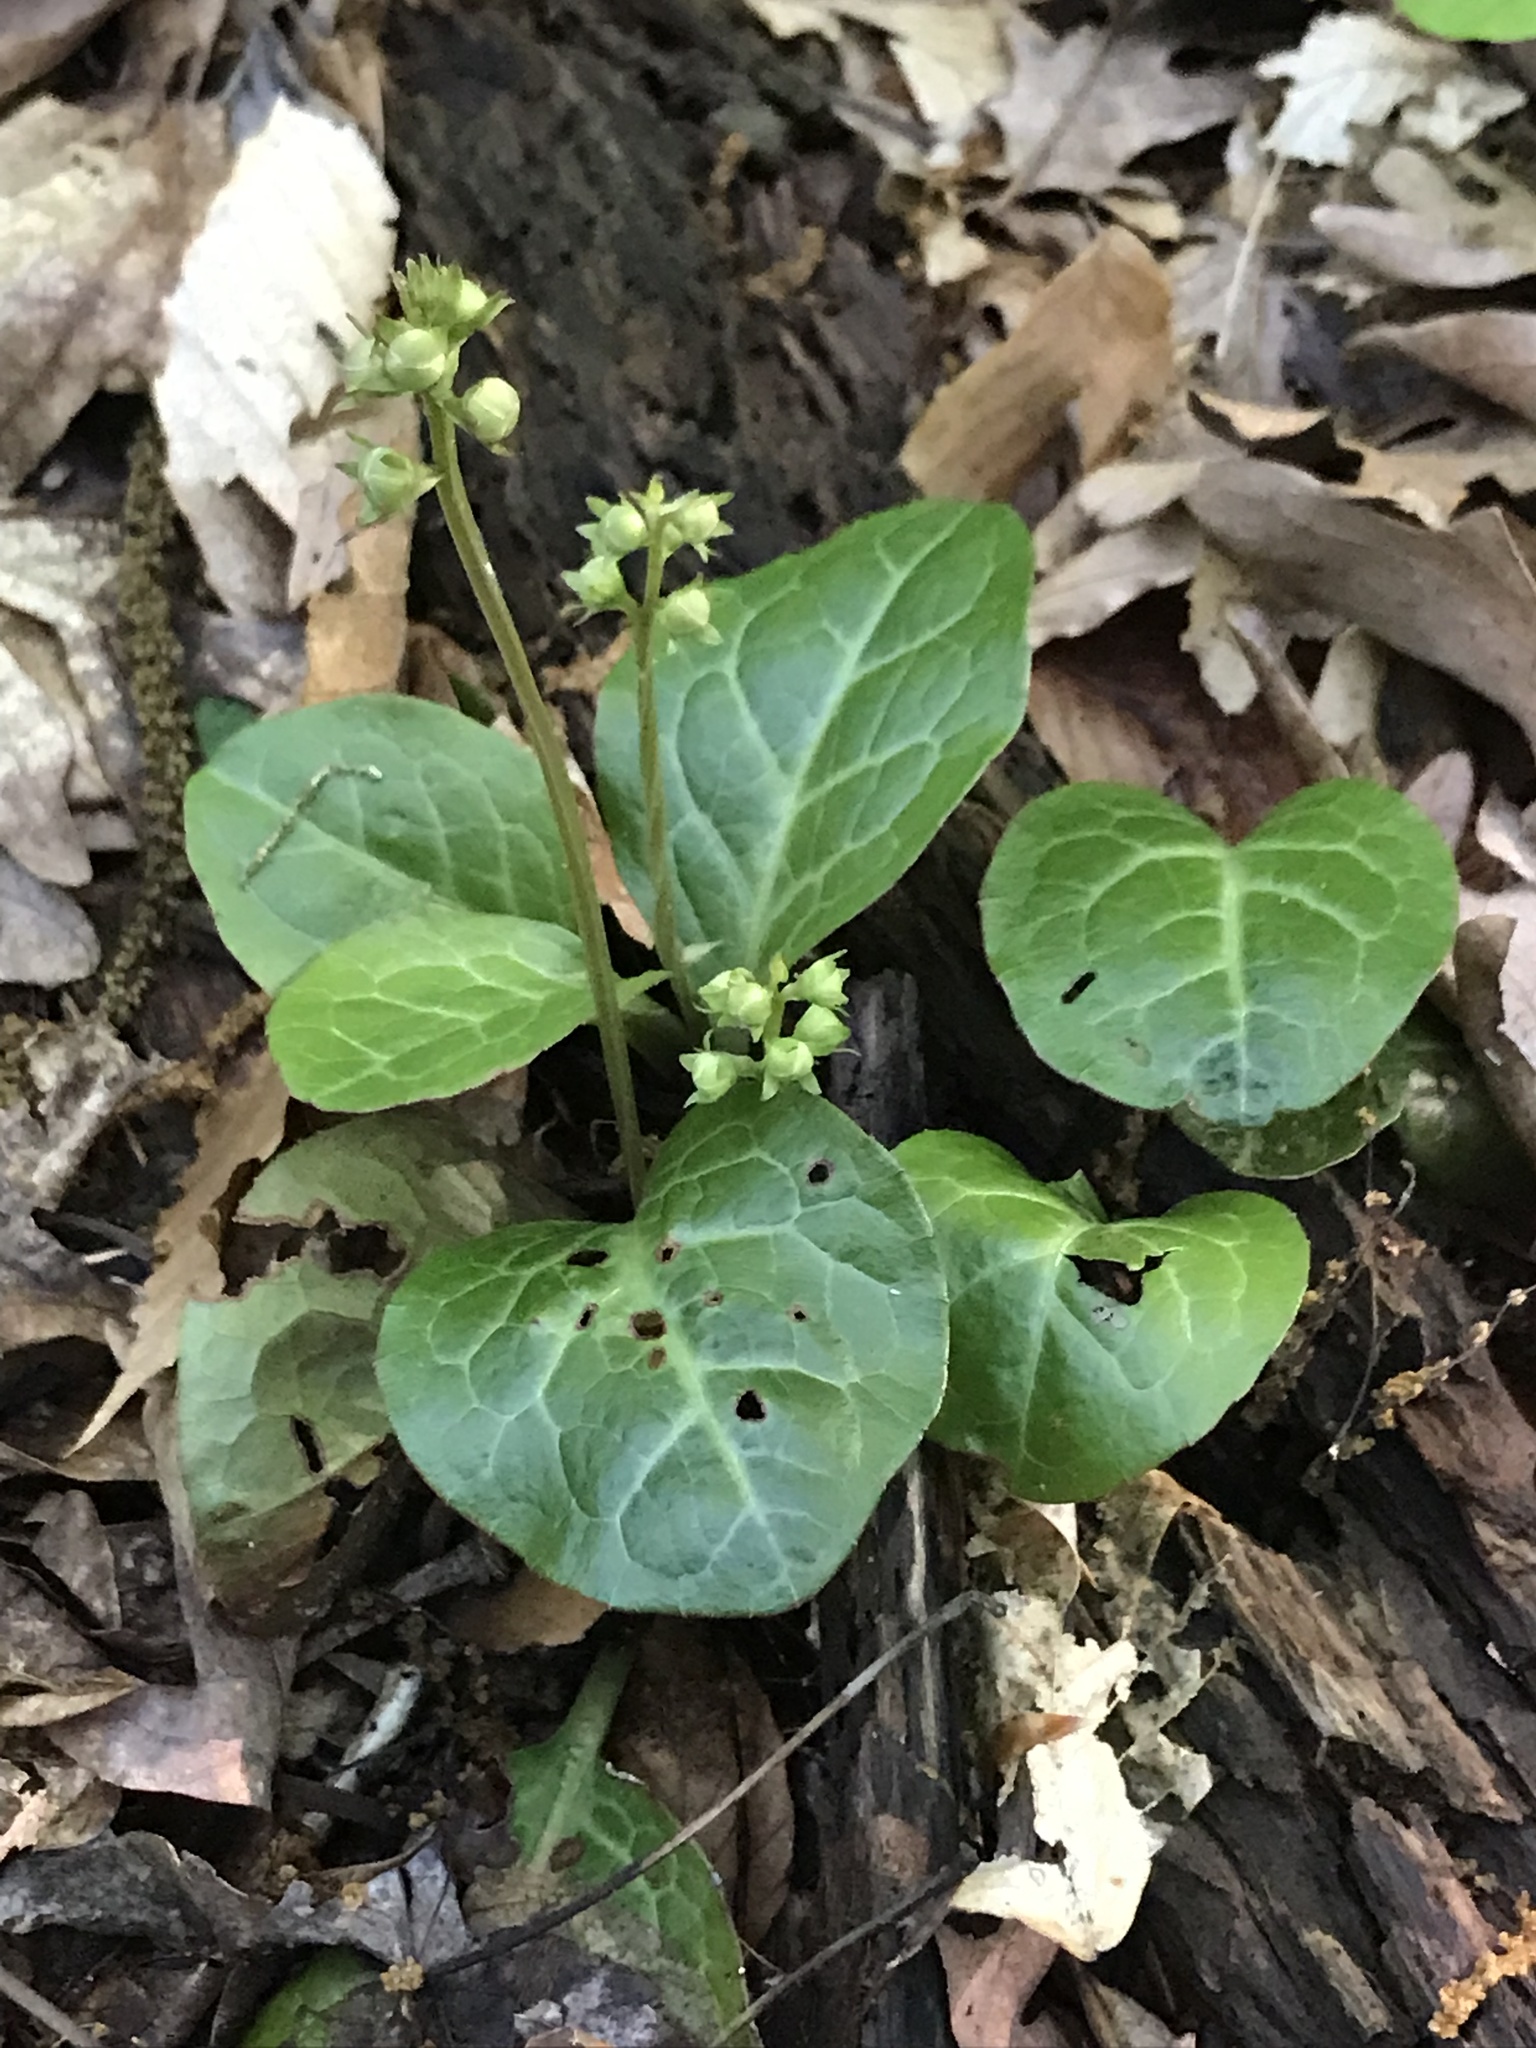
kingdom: Plantae
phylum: Tracheophyta
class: Magnoliopsida
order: Ericales
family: Ericaceae
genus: Pyrola
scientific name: Pyrola americana
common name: American wintergreen
